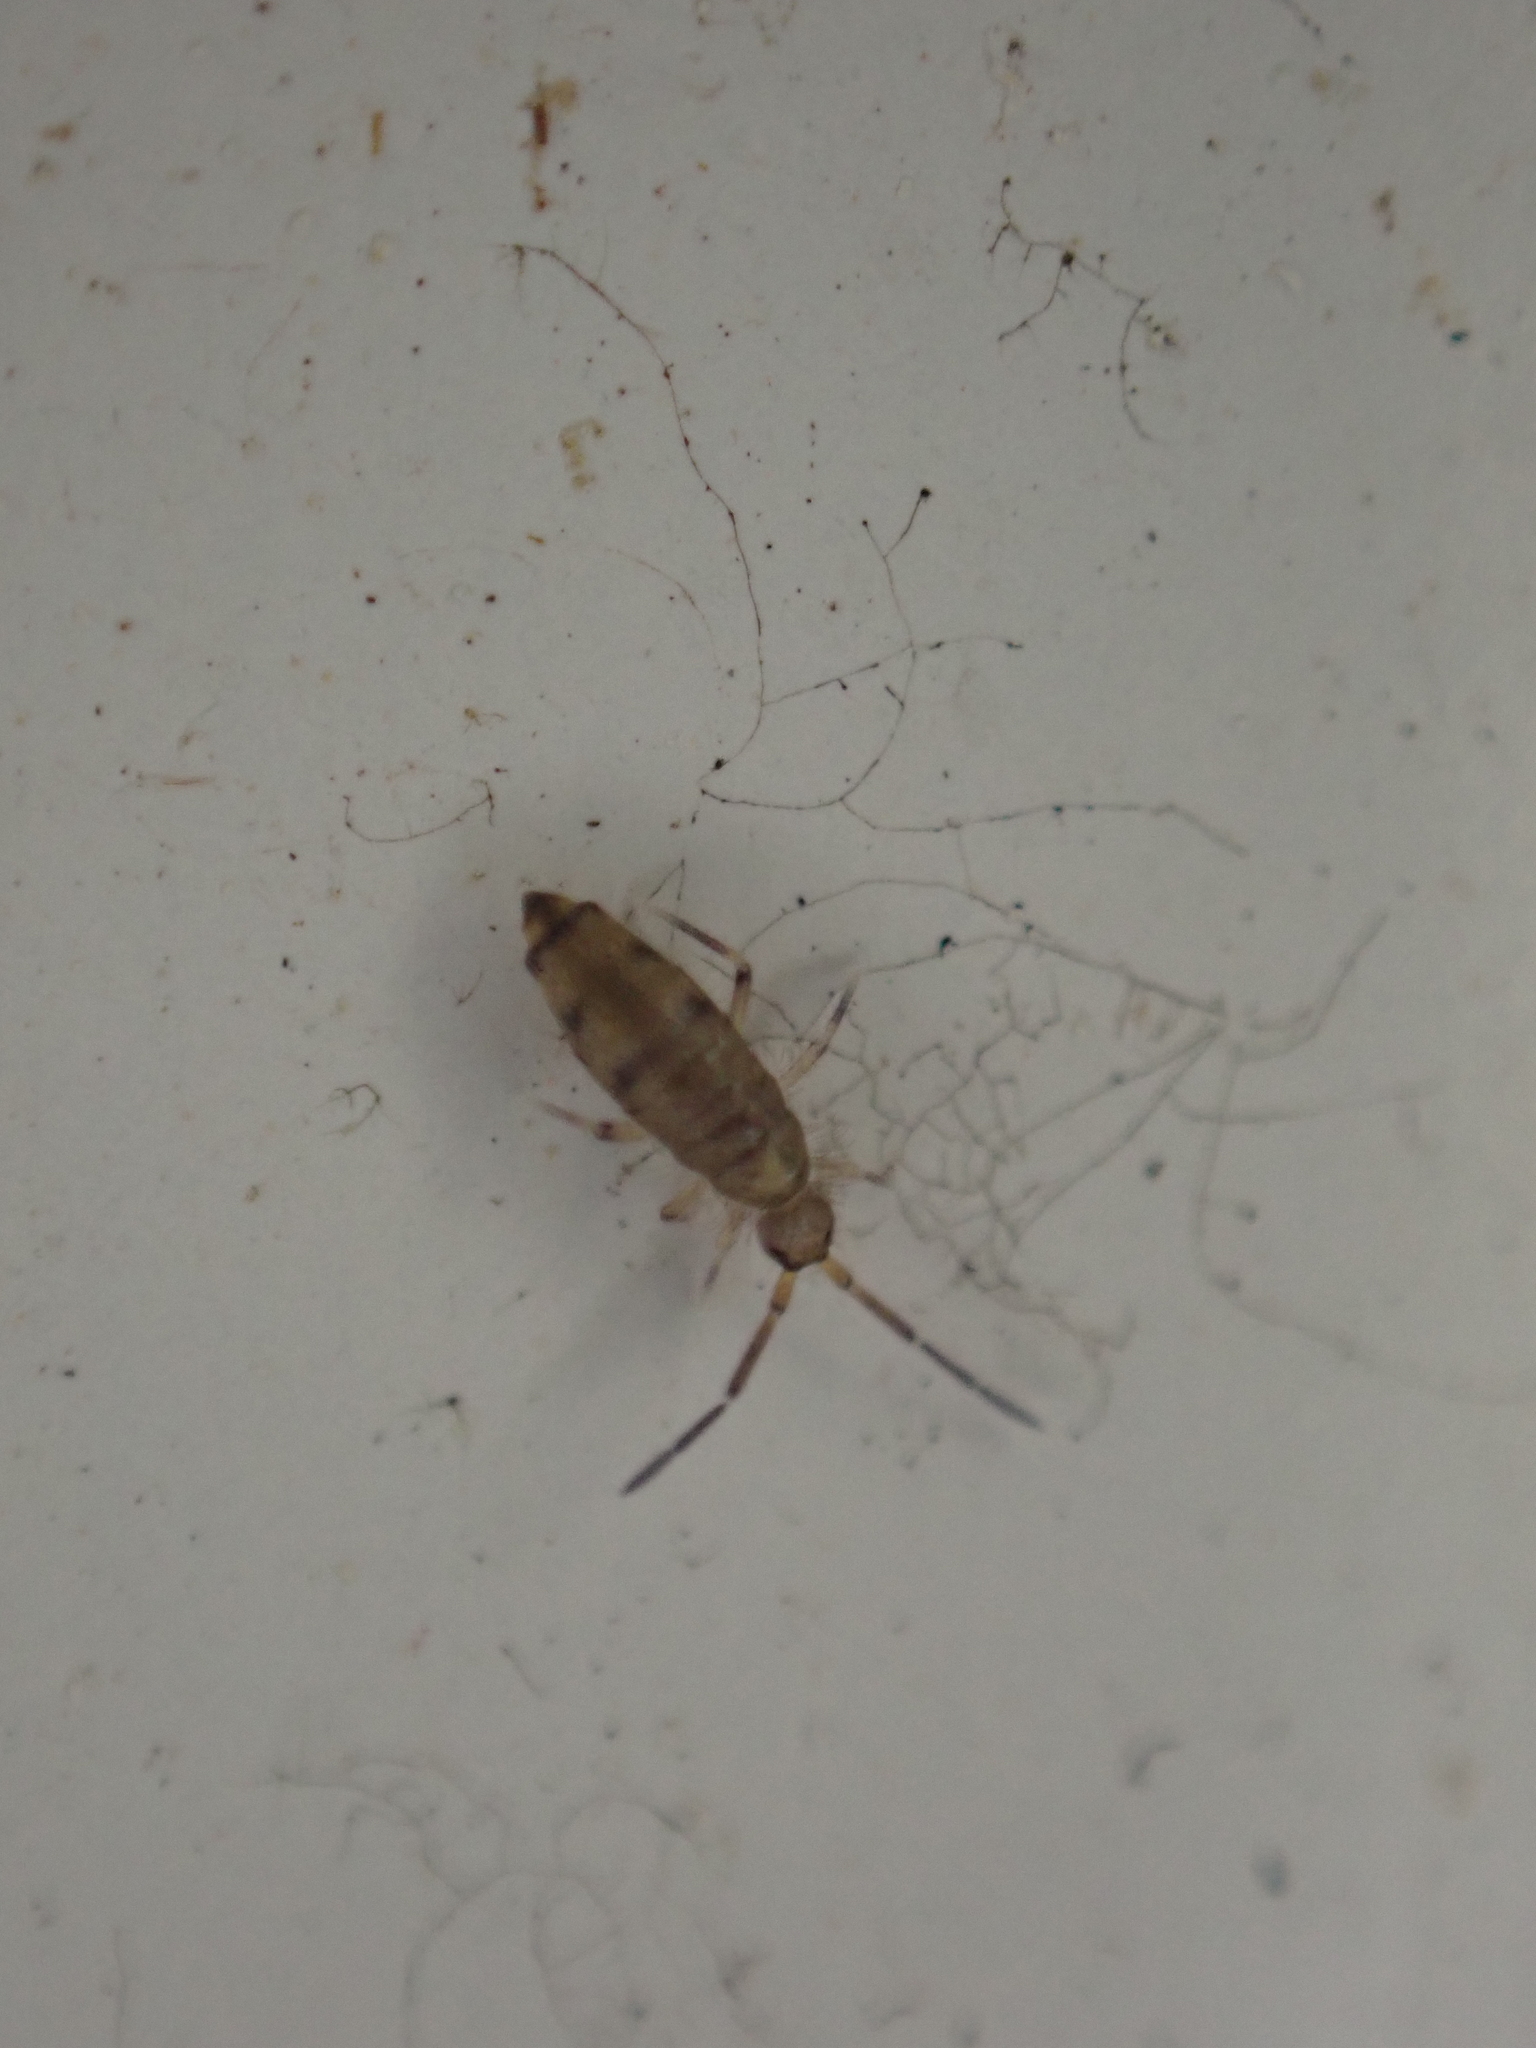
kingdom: Animalia
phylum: Arthropoda
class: Collembola
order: Entomobryomorpha
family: Entomobryidae
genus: Willowsia
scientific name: Willowsia nigromaculata
